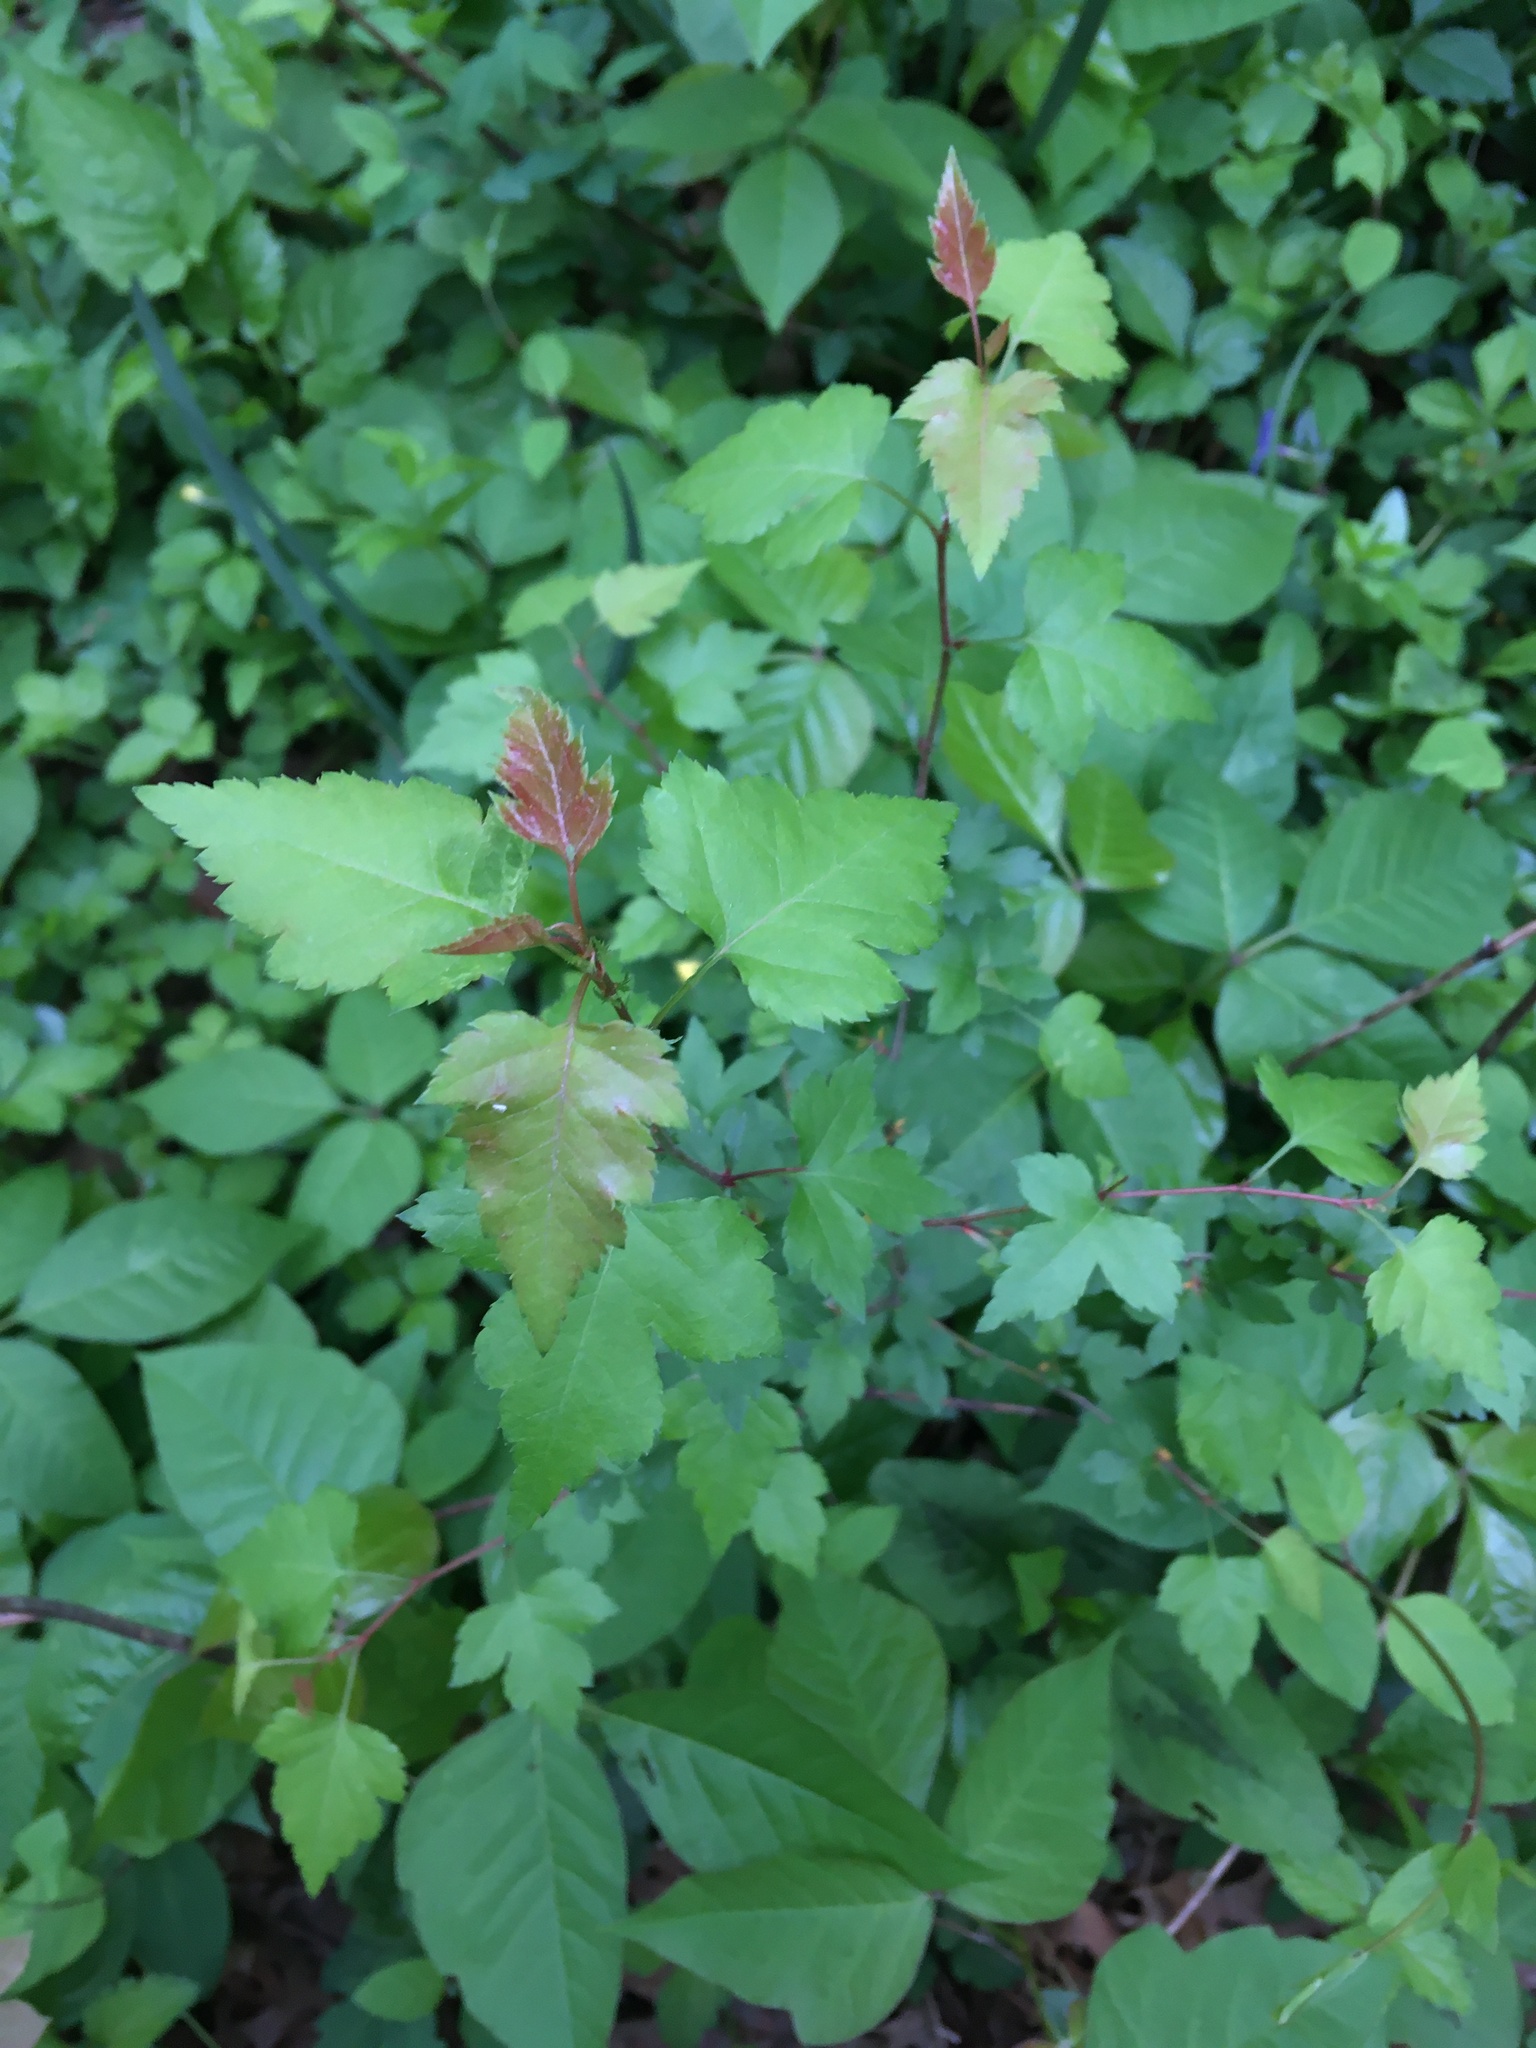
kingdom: Plantae
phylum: Tracheophyta
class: Magnoliopsida
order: Rosales
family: Rosaceae
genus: Crataegus
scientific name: Crataegus monogyna
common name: Hawthorn
